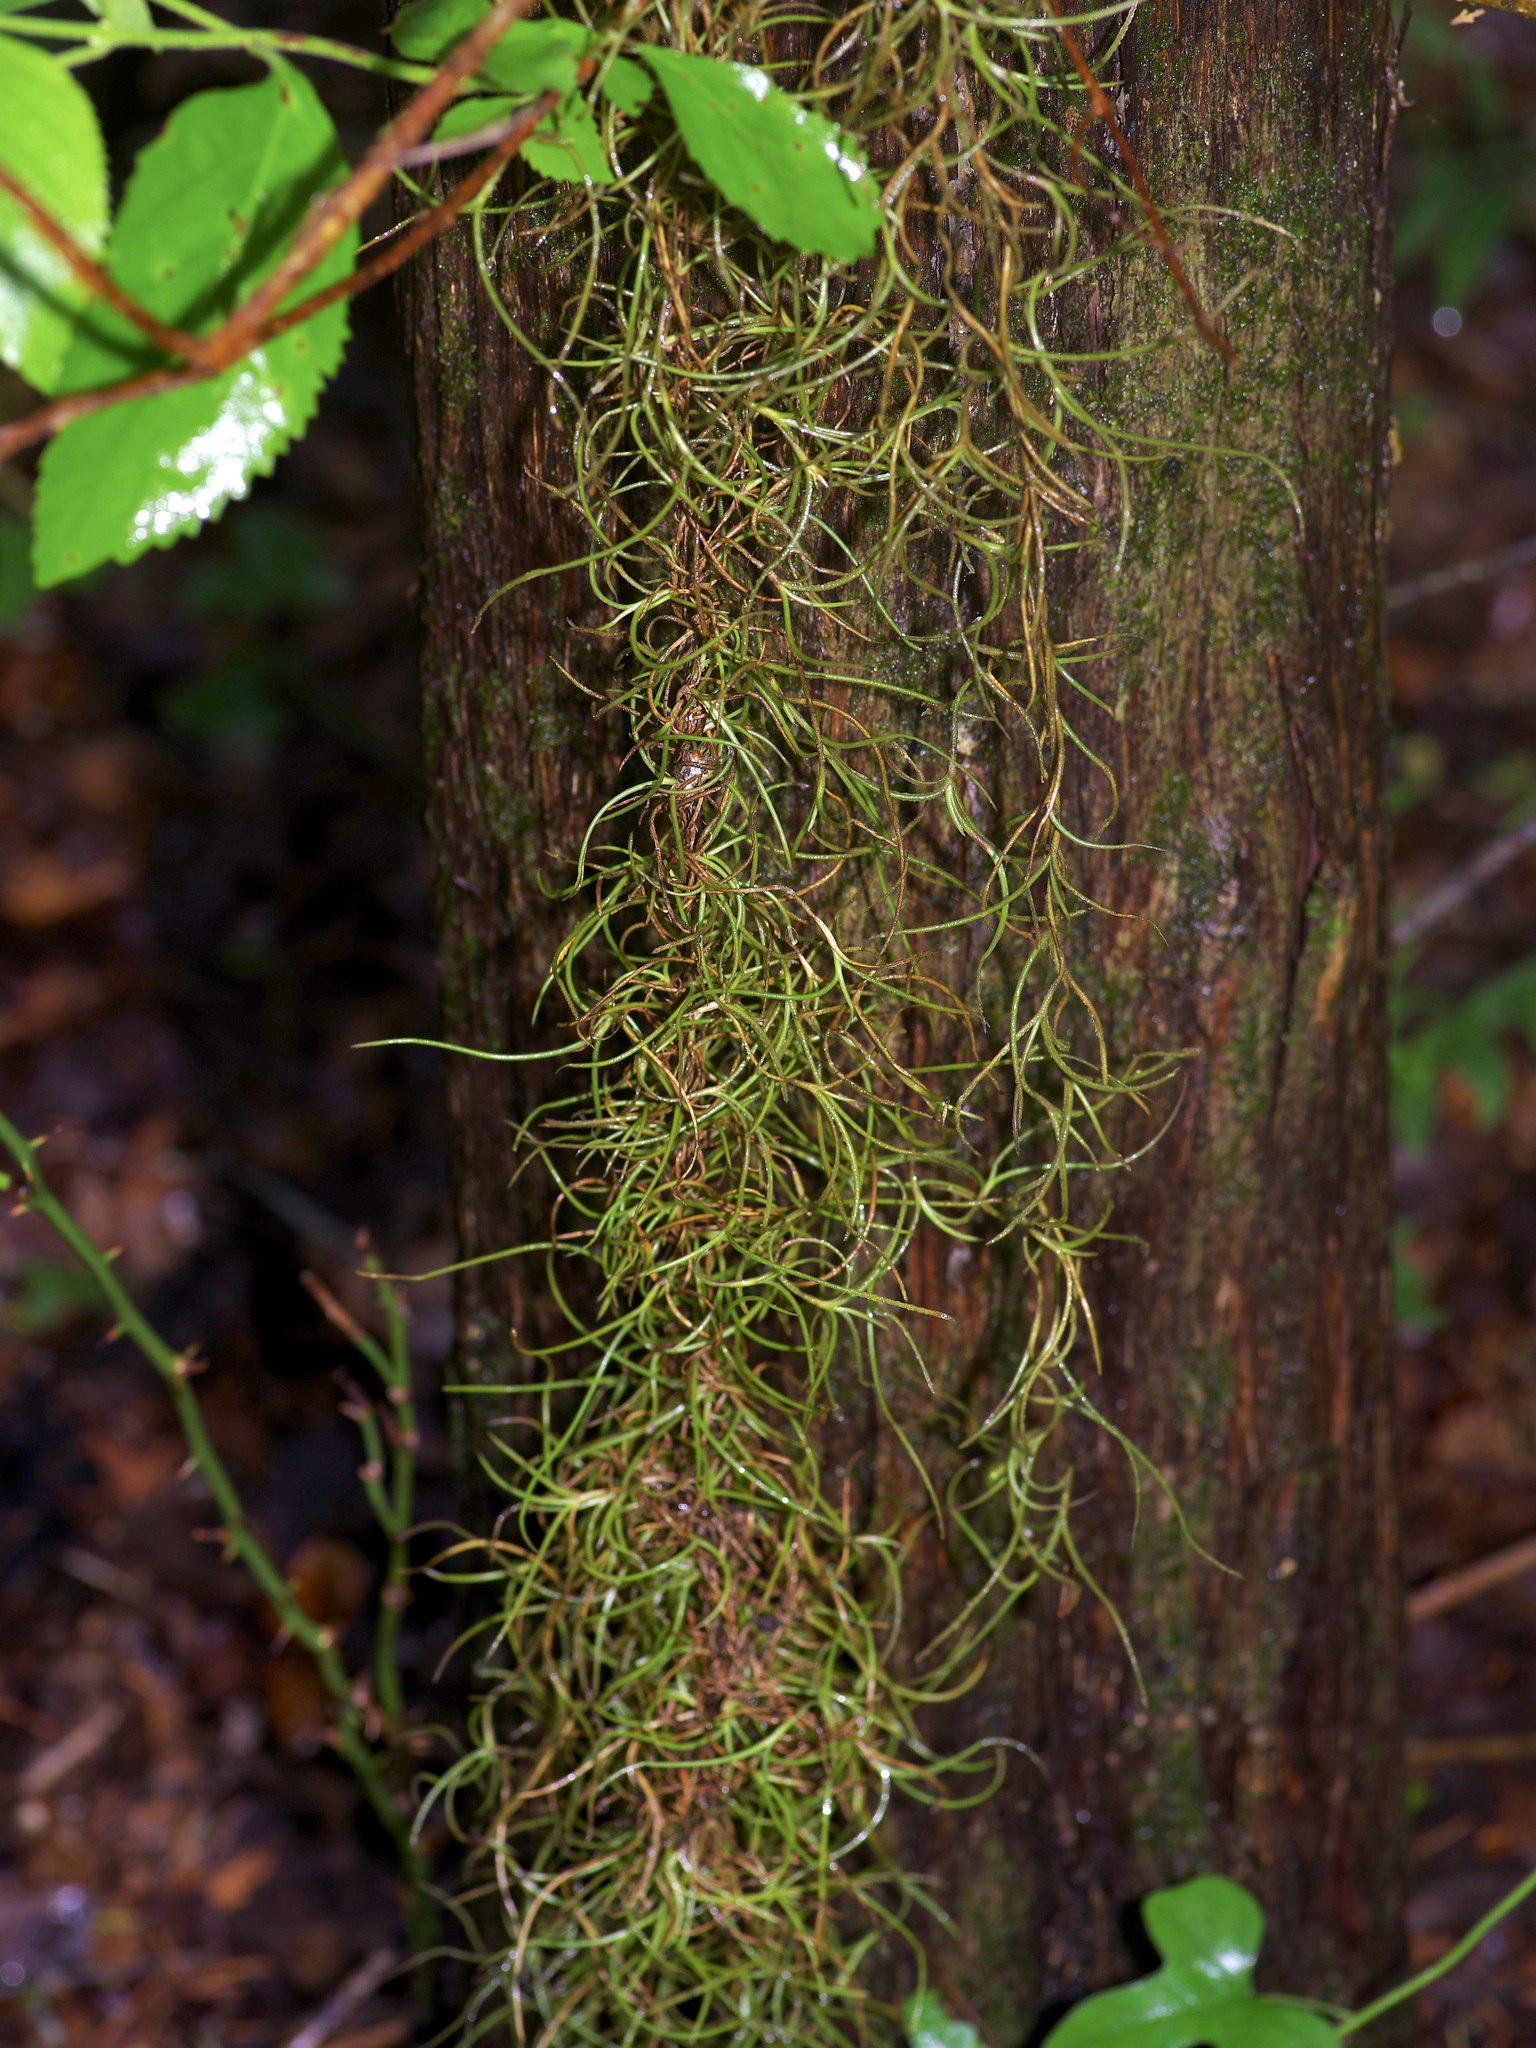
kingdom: Plantae
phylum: Tracheophyta
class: Liliopsida
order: Poales
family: Bromeliaceae
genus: Tillandsia
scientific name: Tillandsia usneoides
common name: Spanish moss
